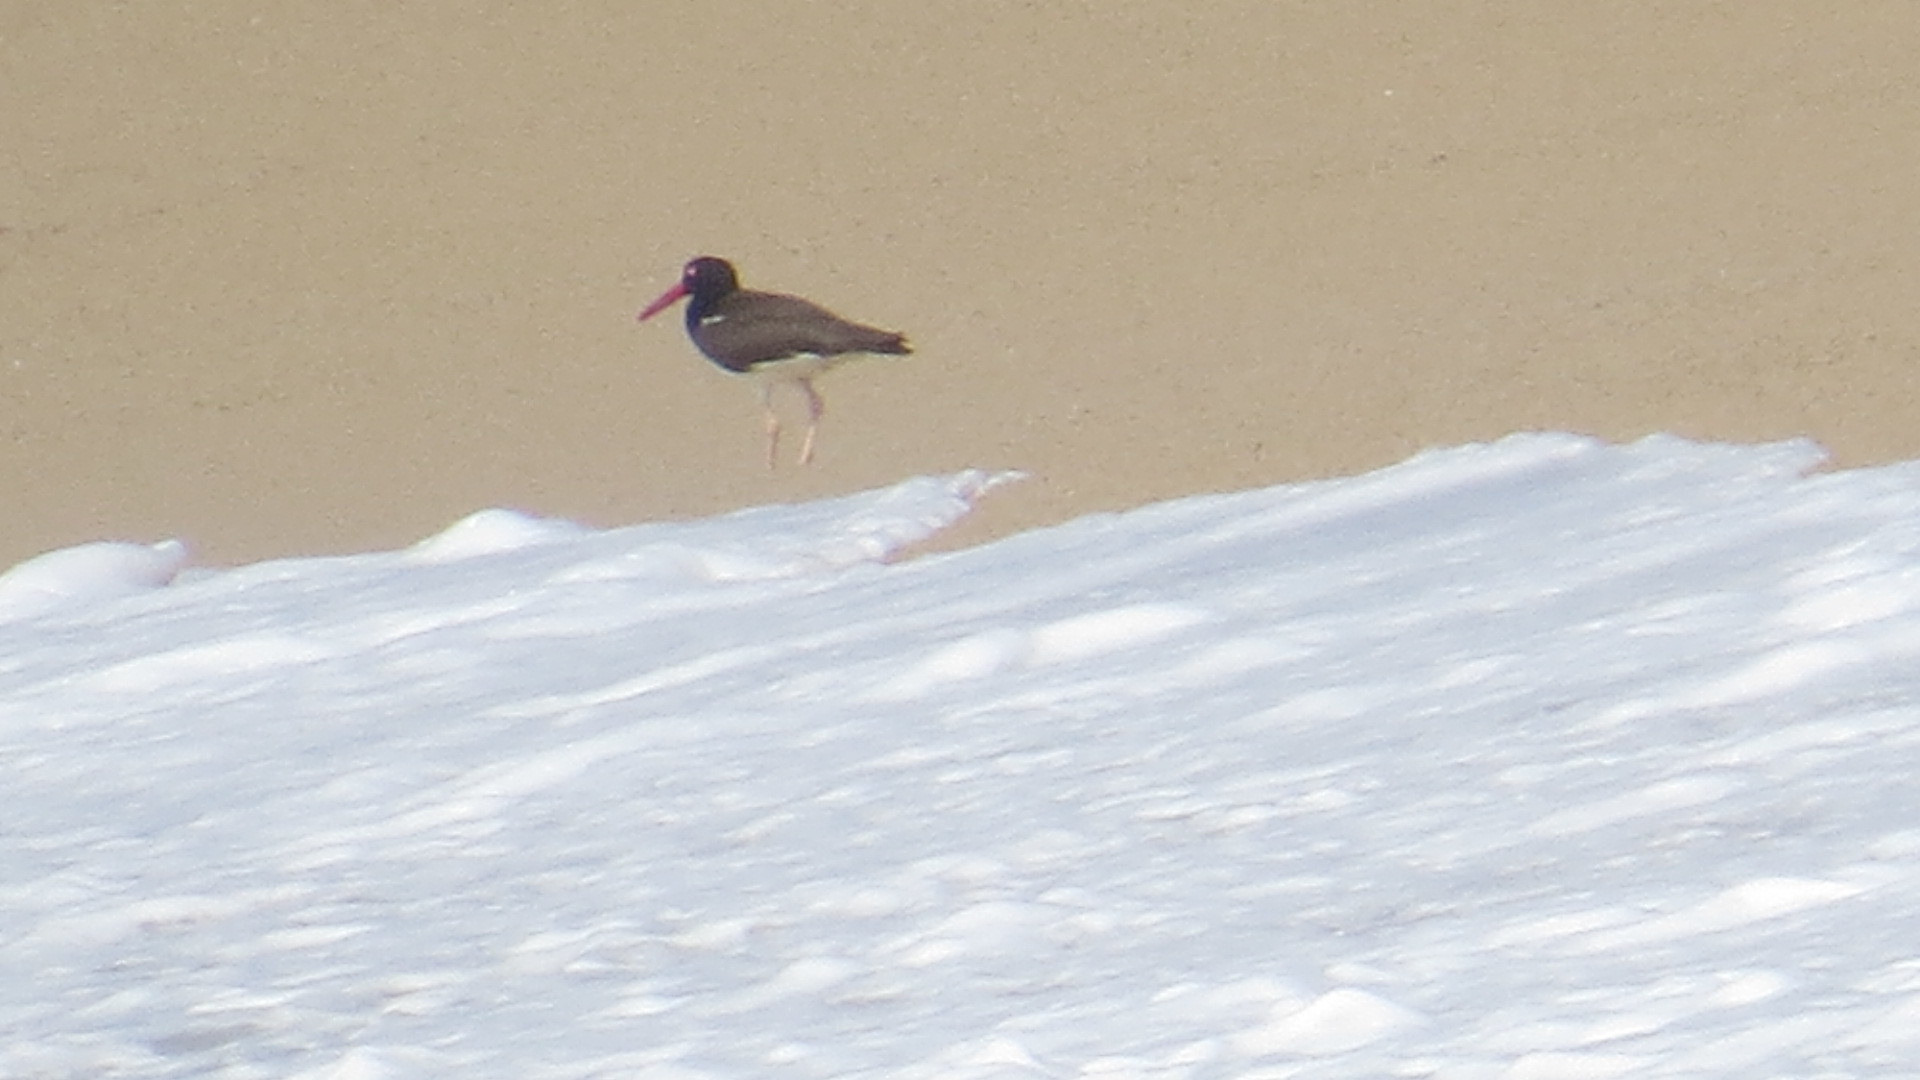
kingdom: Animalia
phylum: Chordata
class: Aves
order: Charadriiformes
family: Haematopodidae
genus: Haematopus
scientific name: Haematopus palliatus
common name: American oystercatcher
